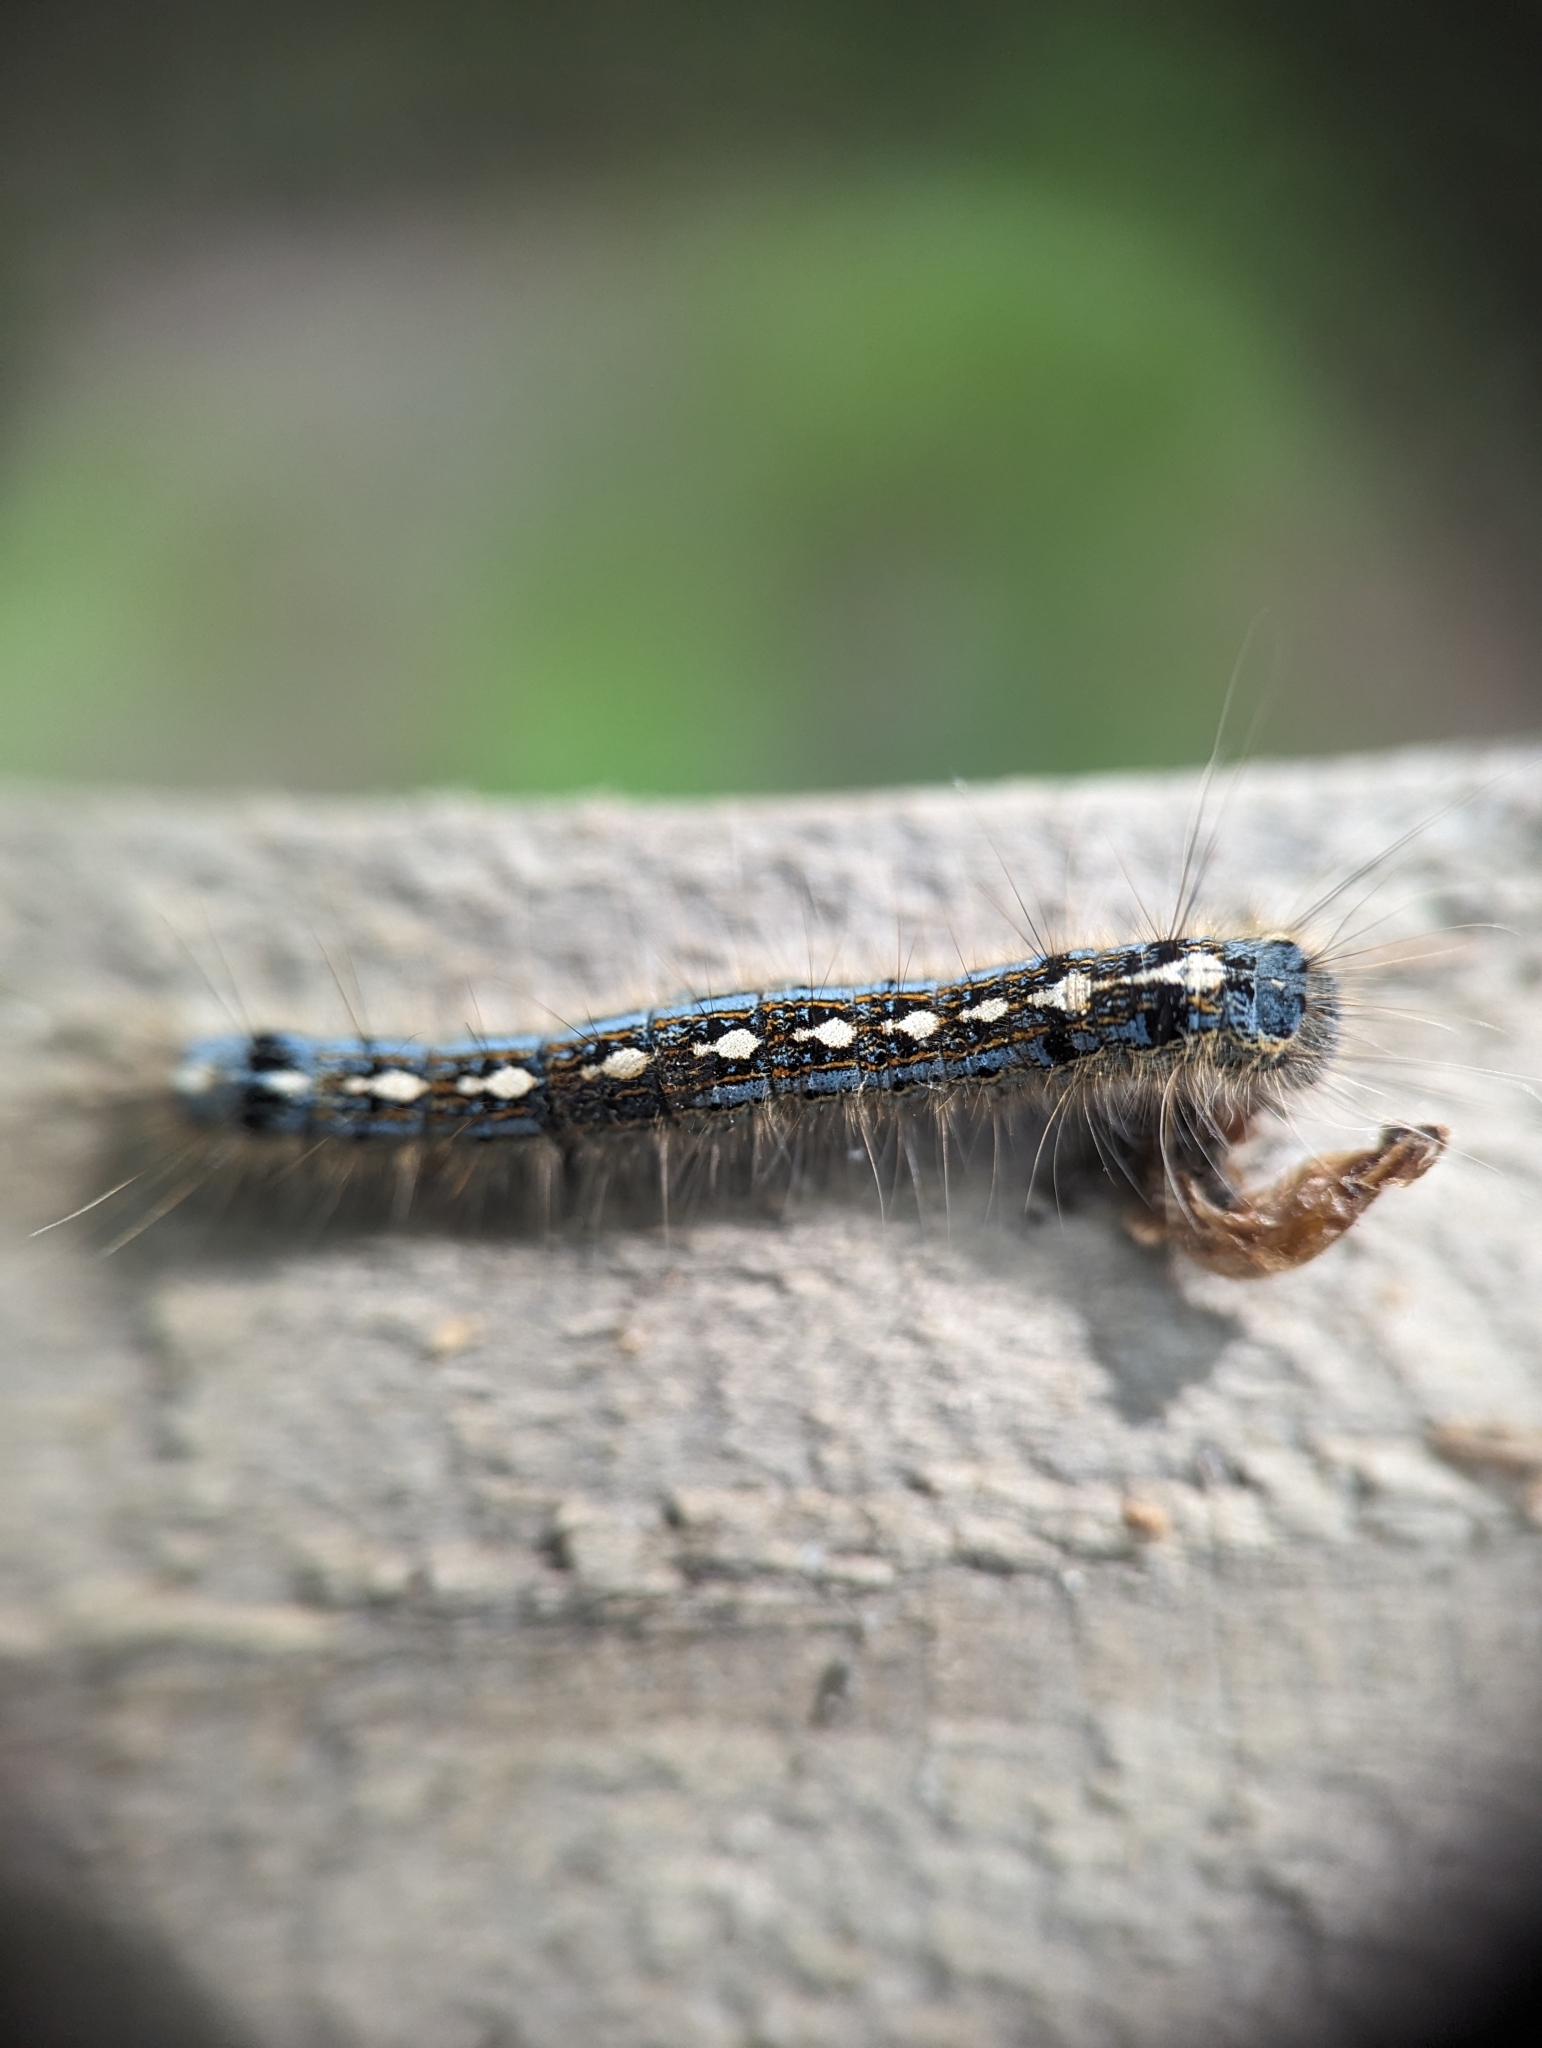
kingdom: Animalia
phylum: Arthropoda
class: Insecta
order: Lepidoptera
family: Lasiocampidae
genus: Malacosoma
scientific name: Malacosoma disstria
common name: Forest tent caterpillar
